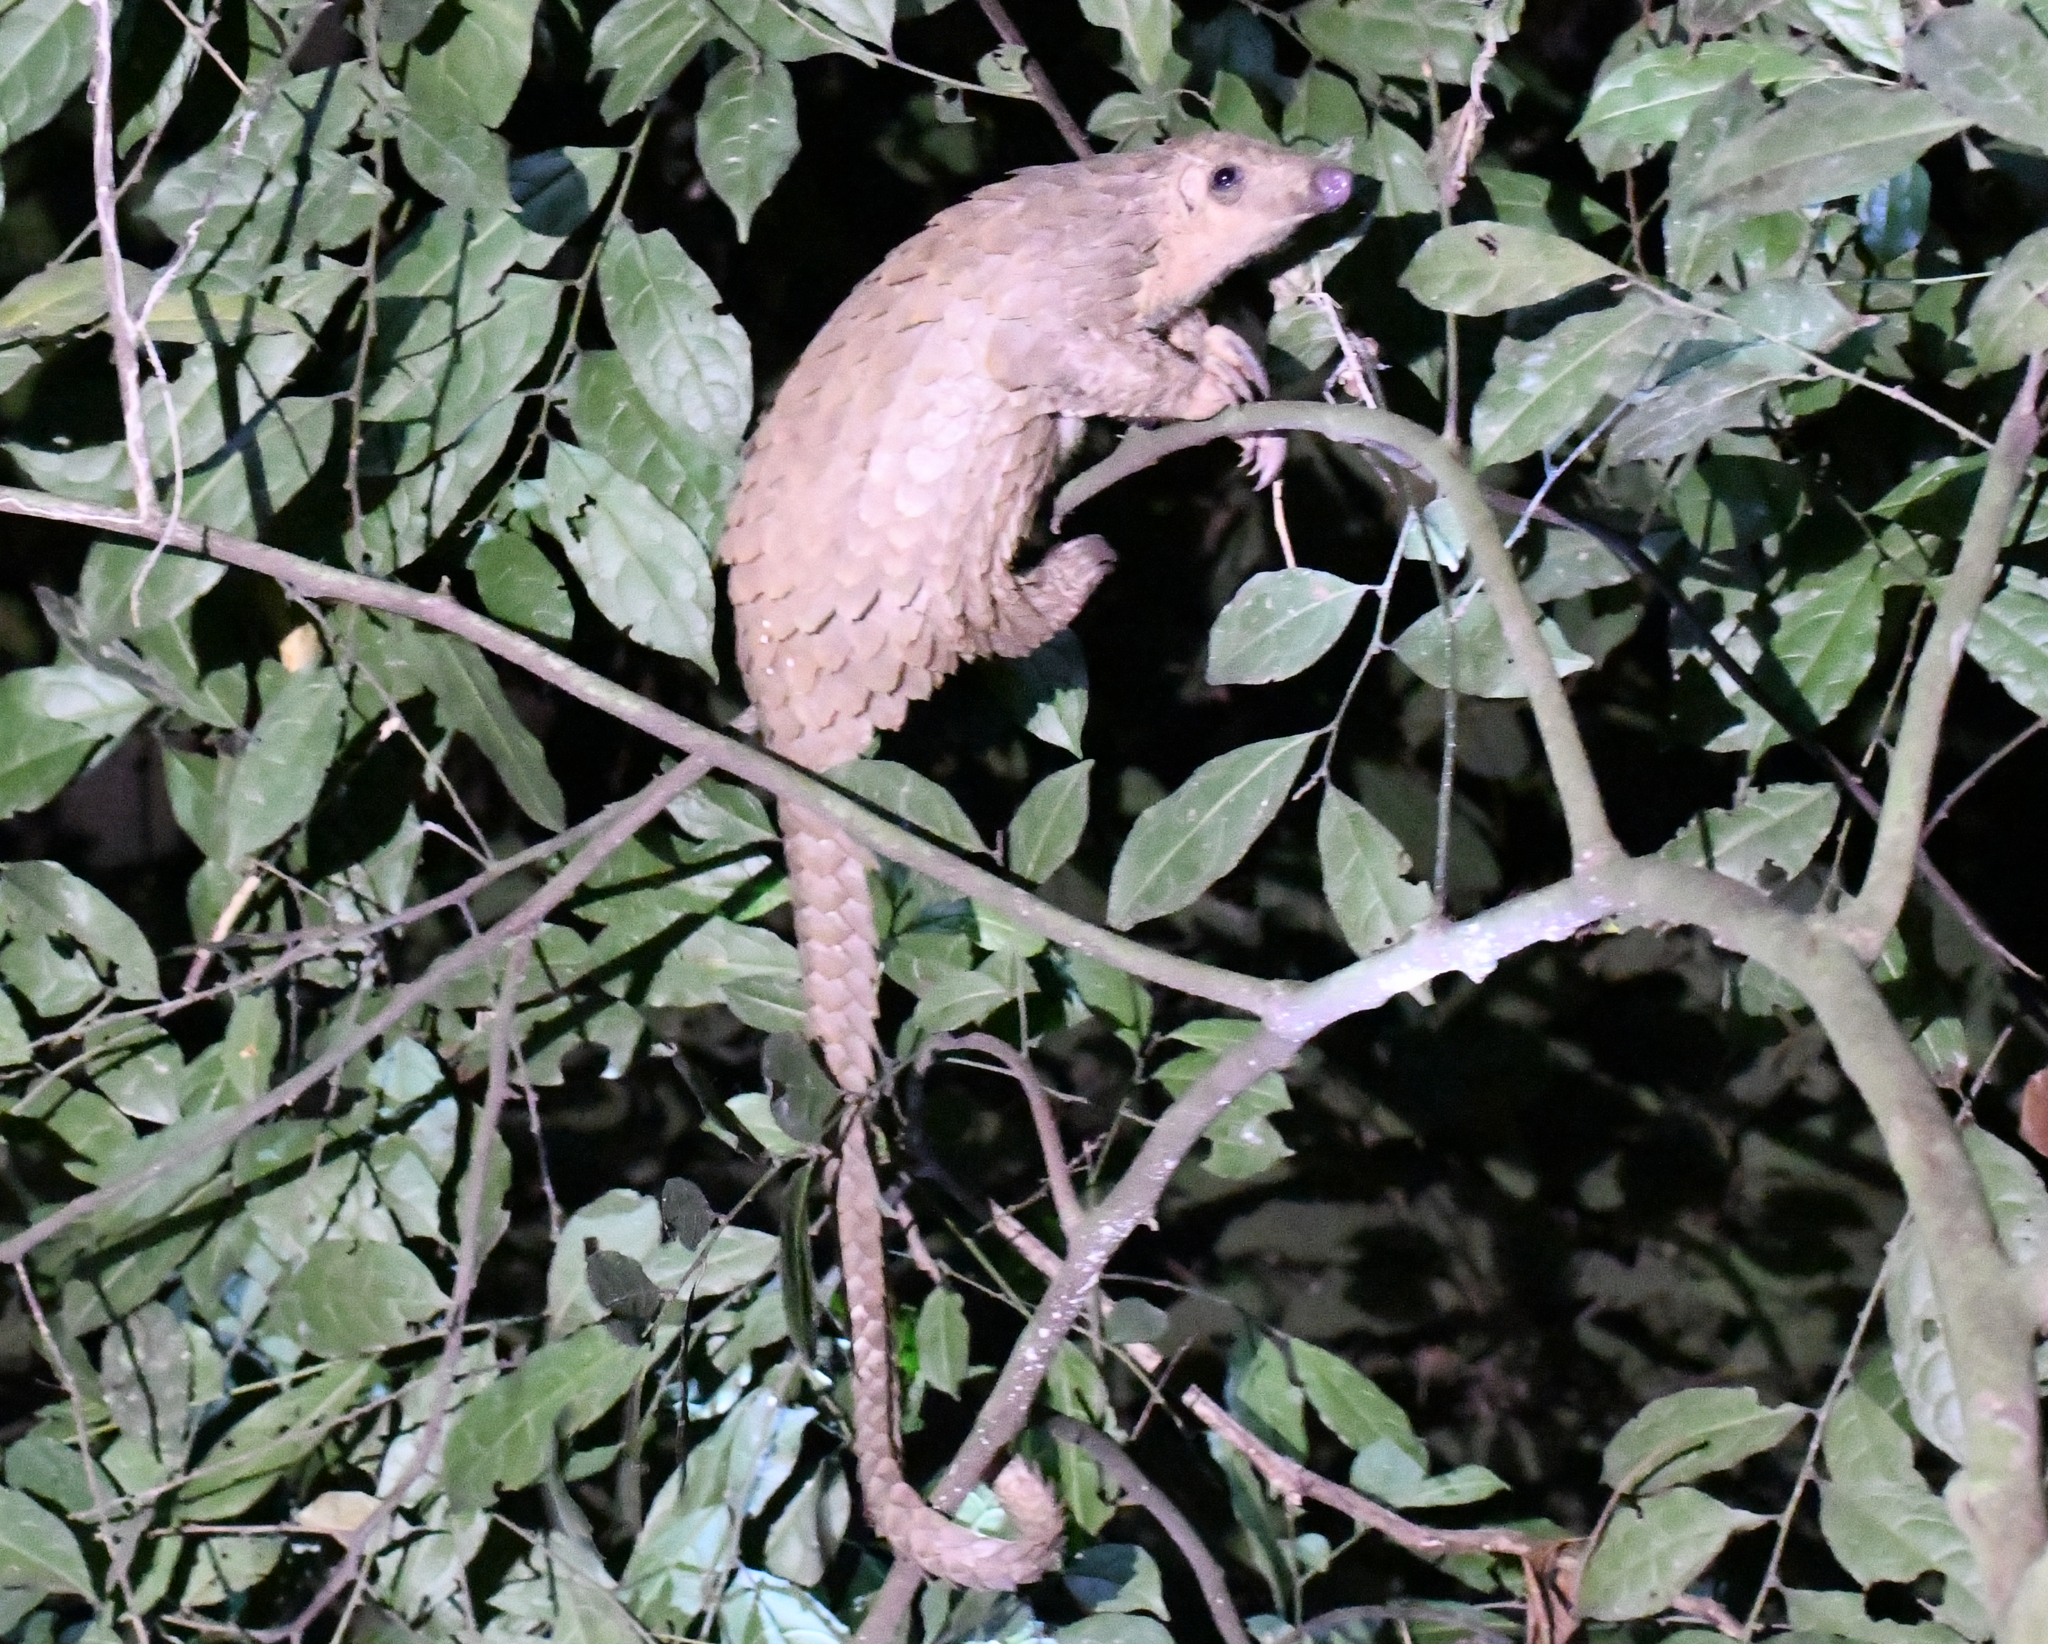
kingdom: Animalia
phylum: Chordata
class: Mammalia
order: Pholidota
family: Manidae
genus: Manis
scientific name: Manis tricuspis
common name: Tree pangolin
